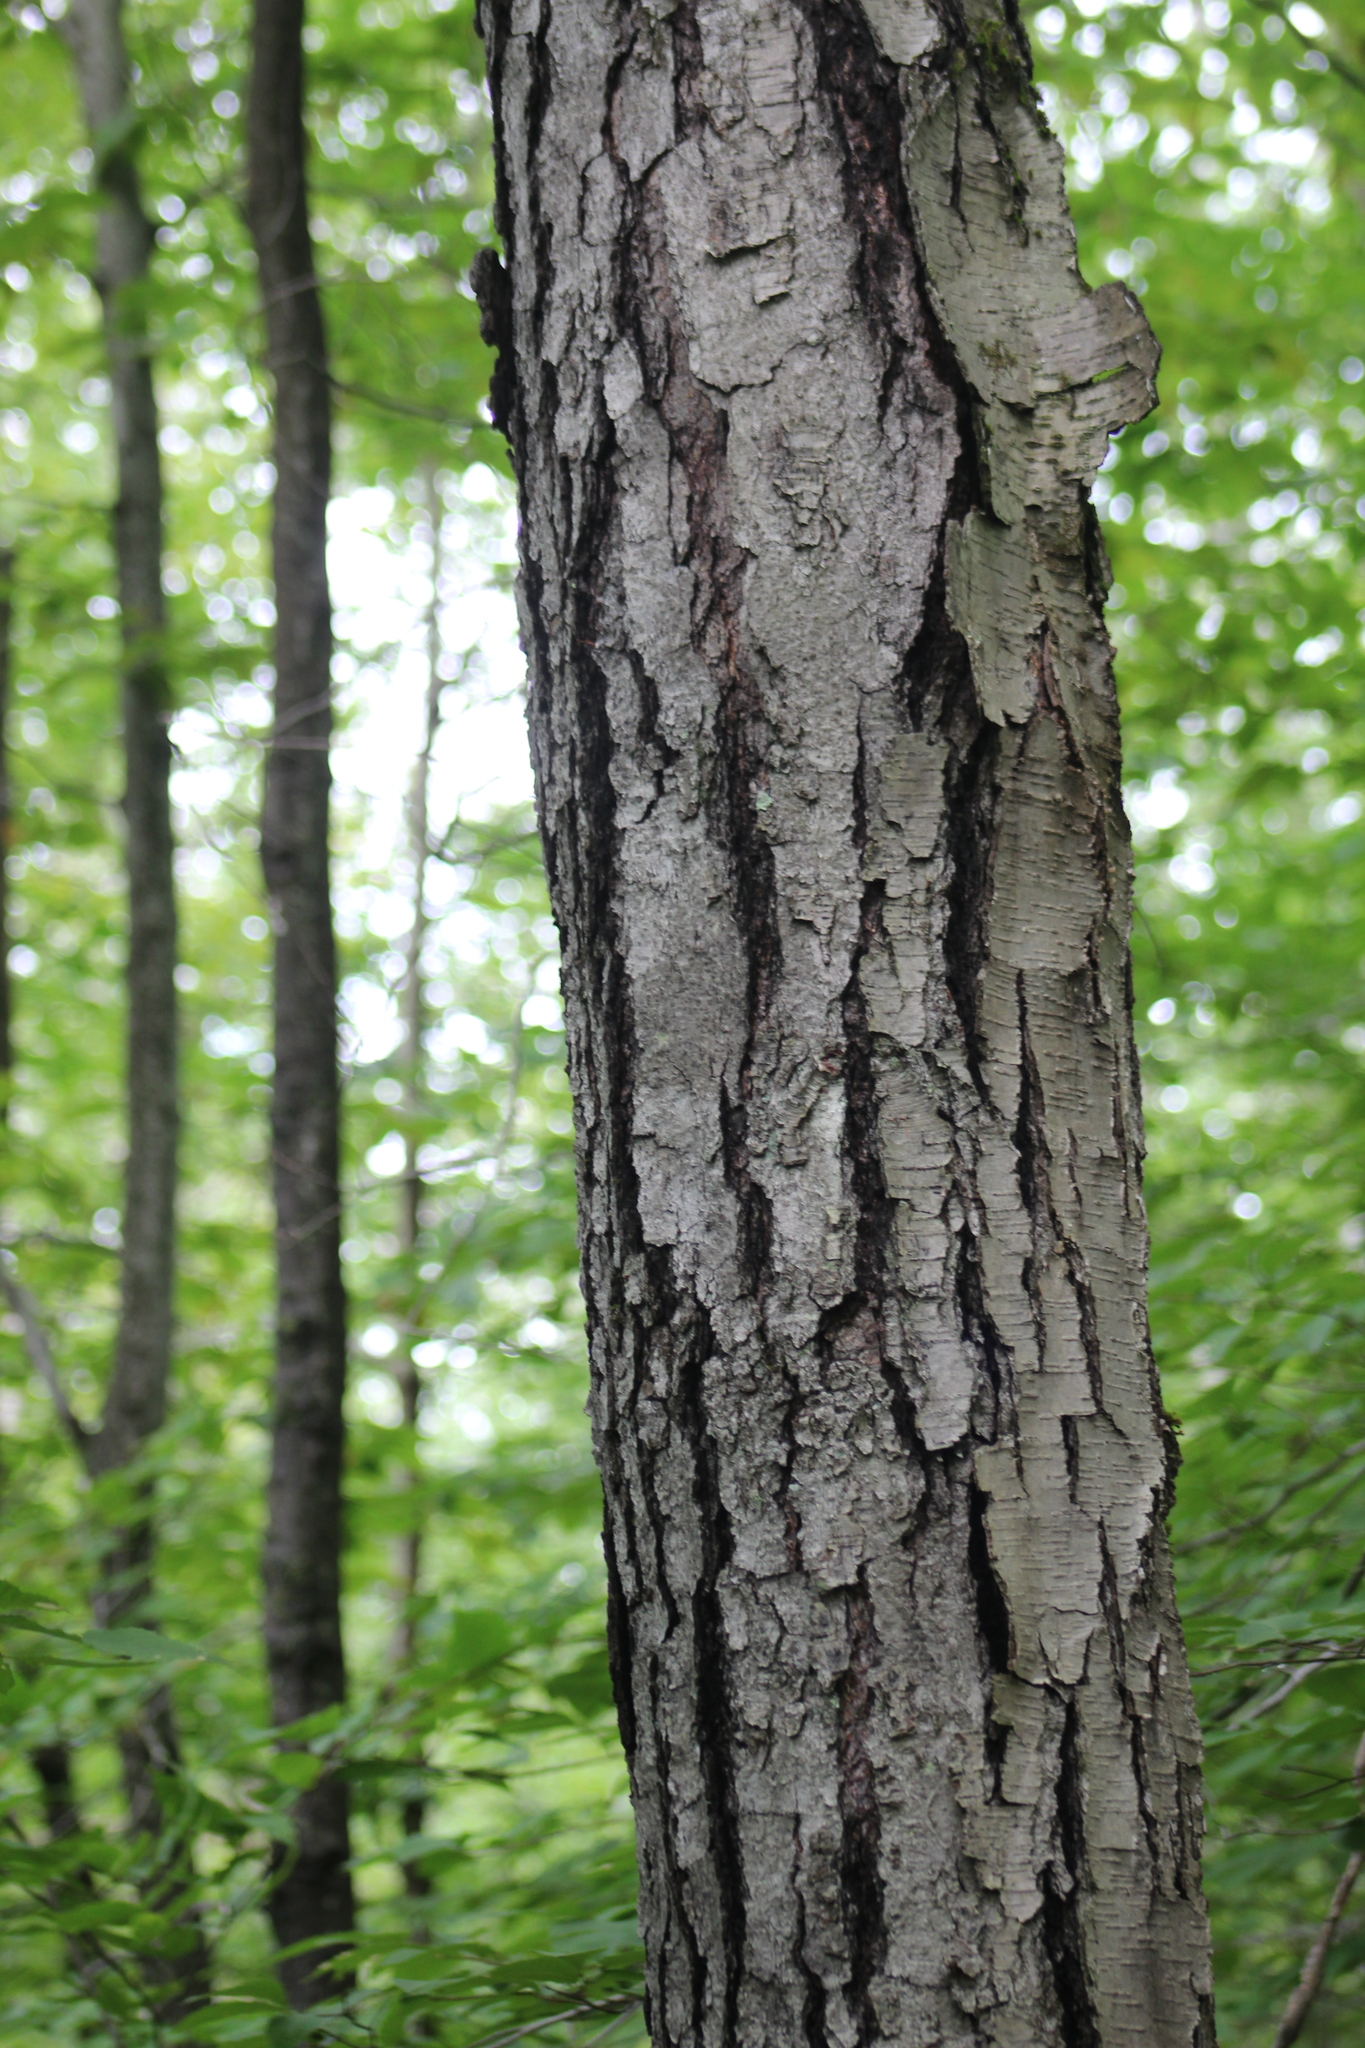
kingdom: Plantae
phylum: Tracheophyta
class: Magnoliopsida
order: Fagales
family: Betulaceae
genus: Betula
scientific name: Betula lenta
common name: Black birch
